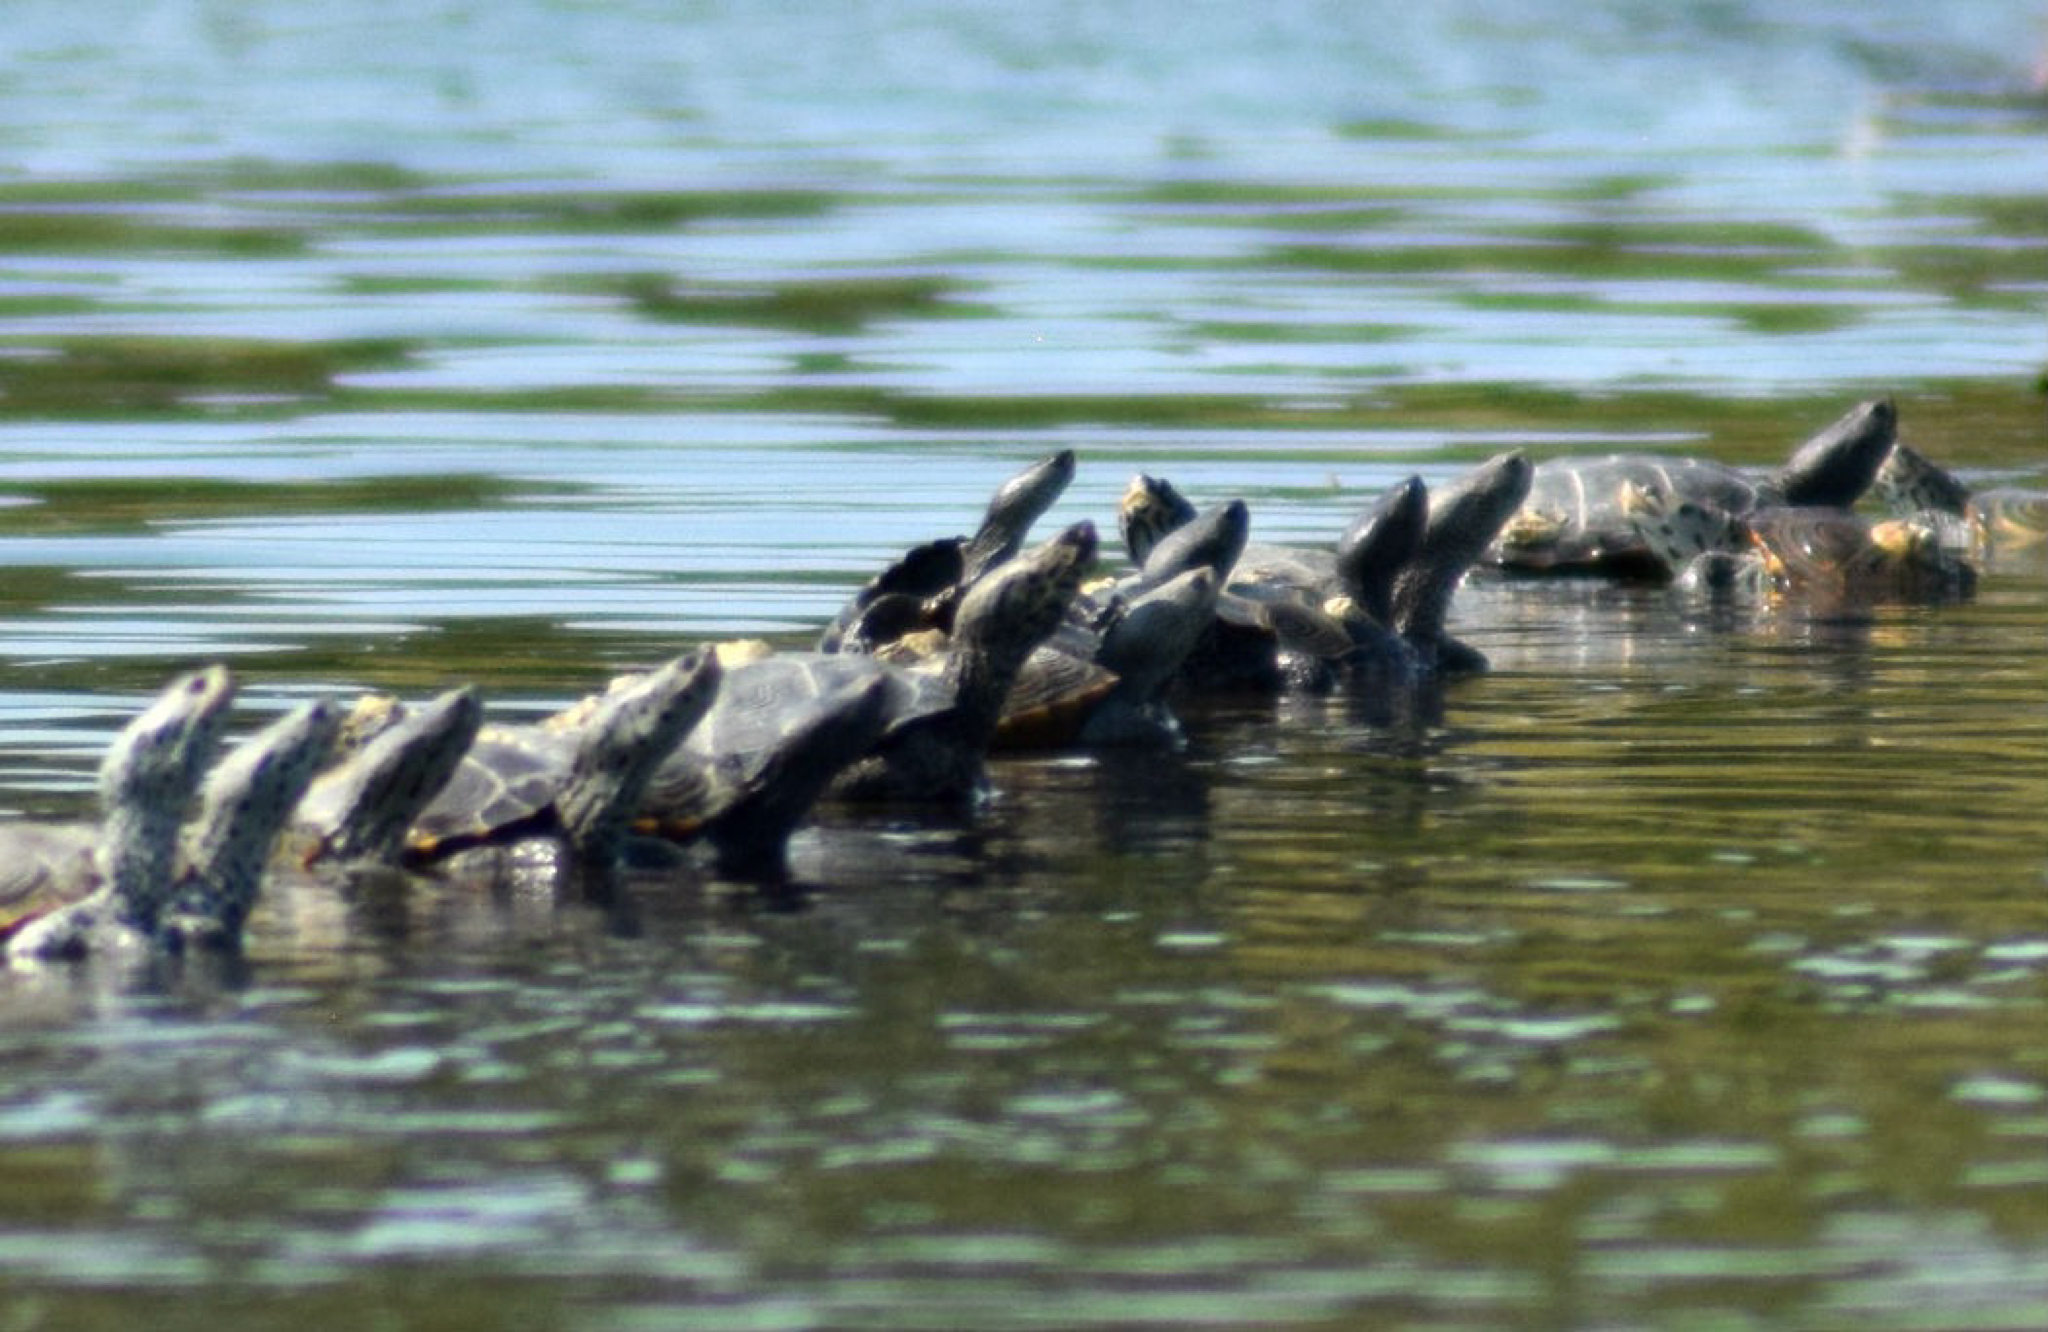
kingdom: Animalia
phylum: Chordata
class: Testudines
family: Emydidae
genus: Malaclemys
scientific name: Malaclemys terrapin
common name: Diamondback terrapin
